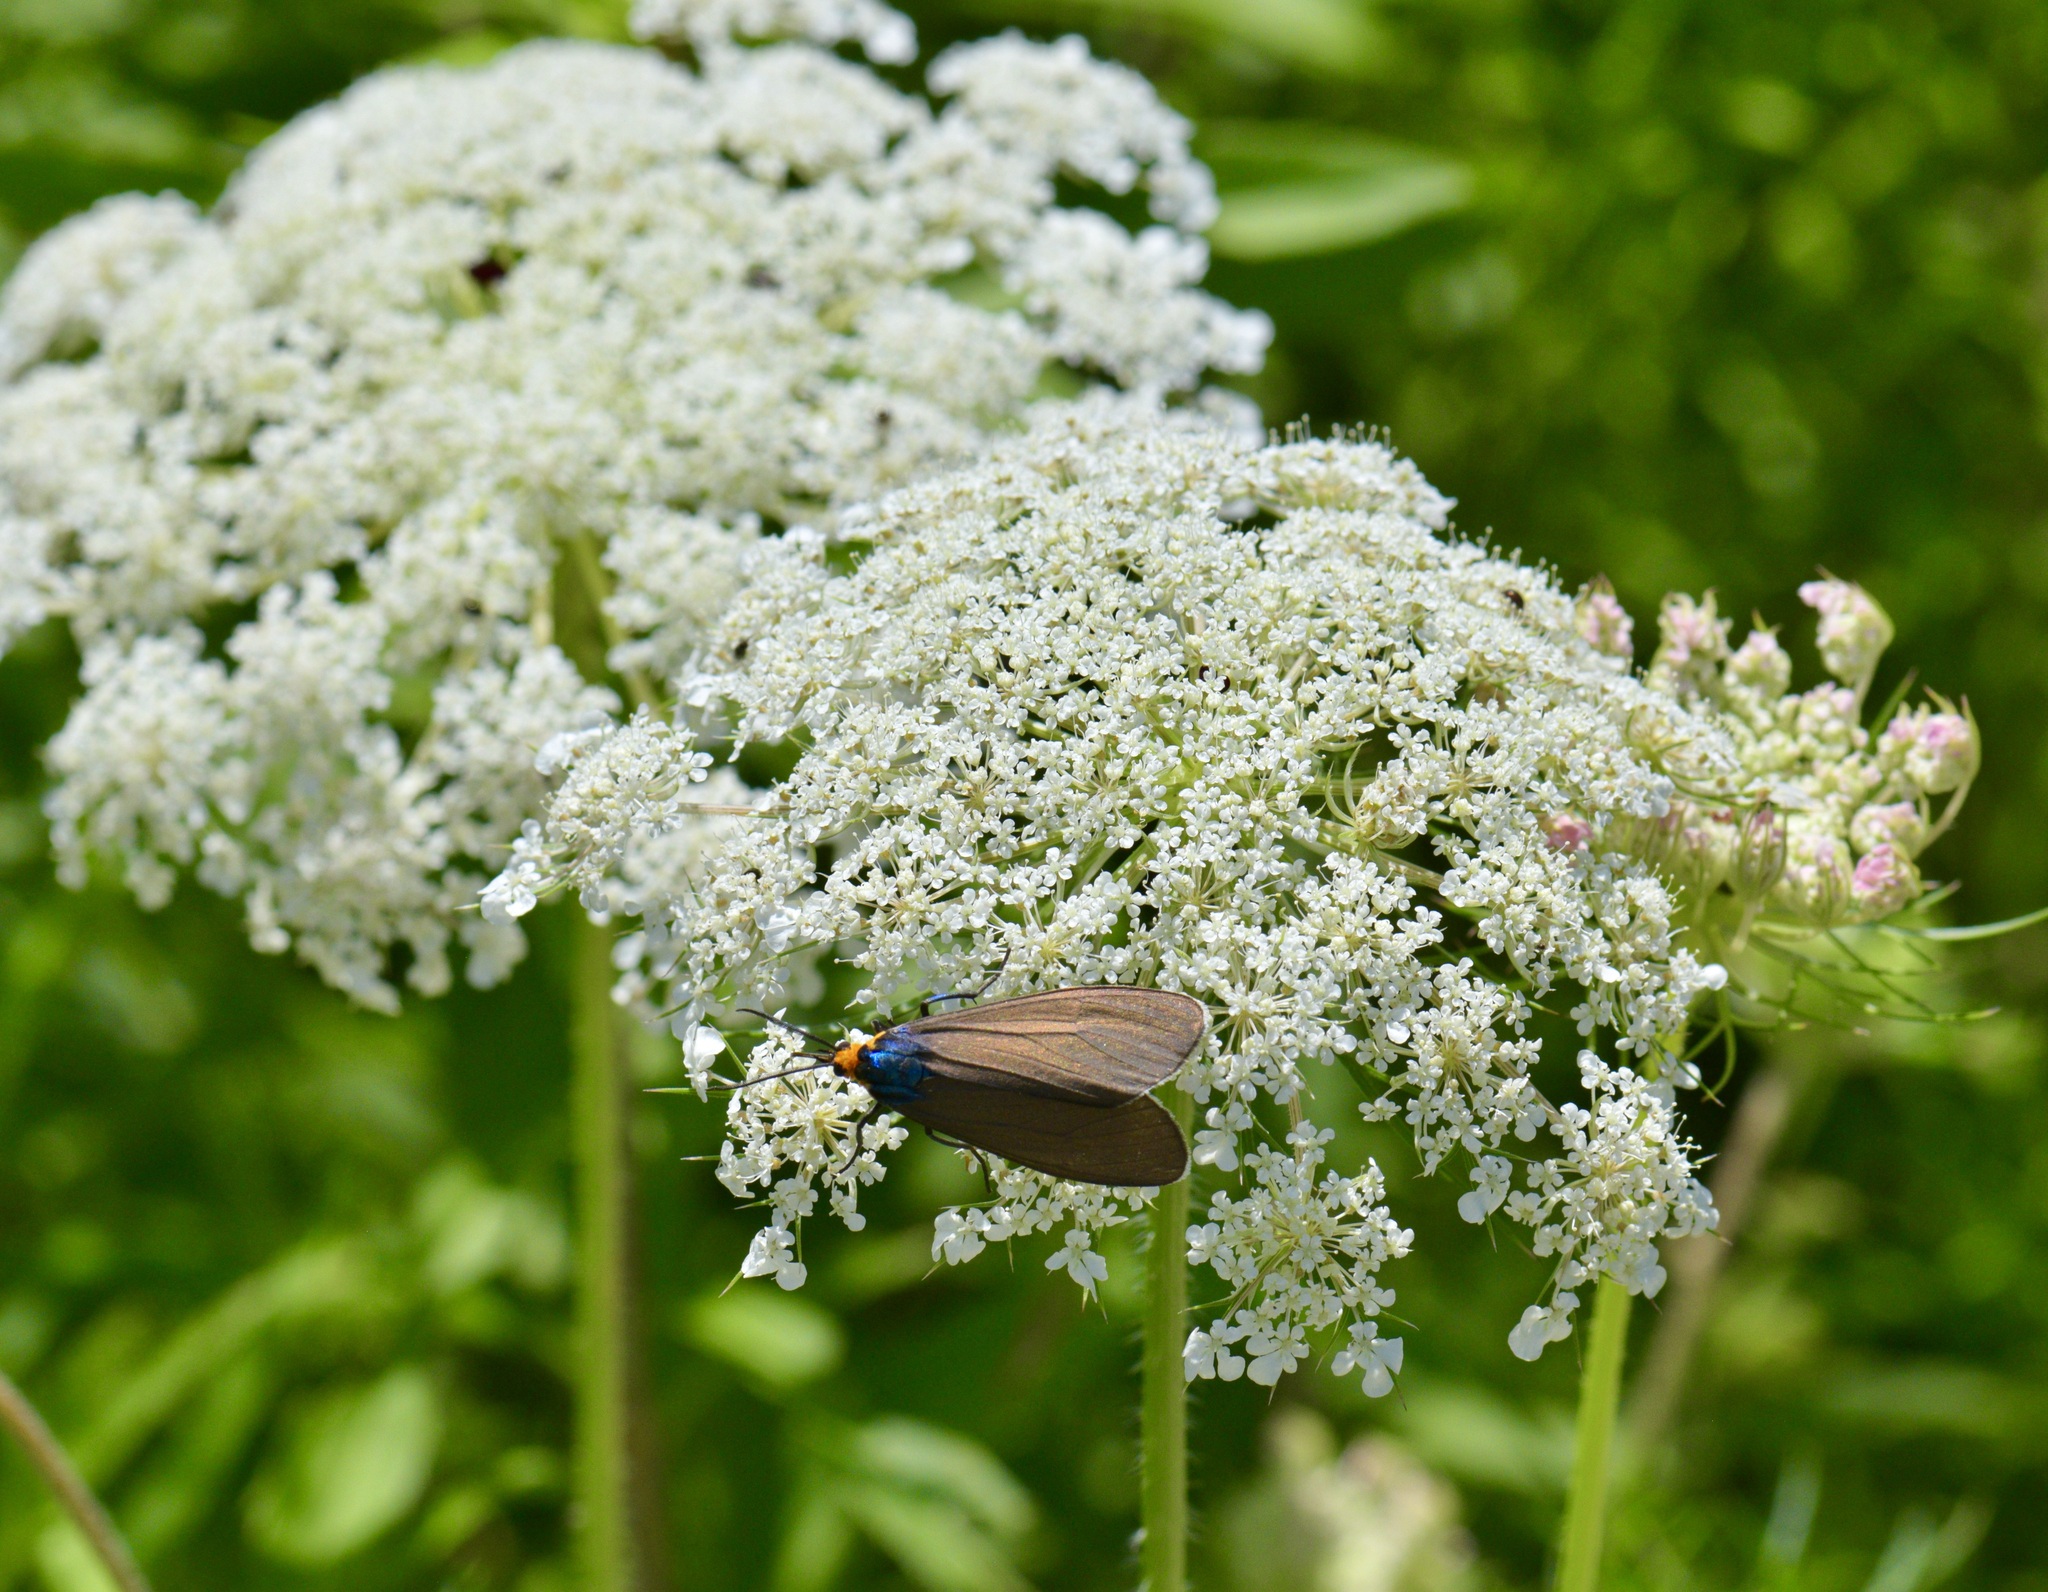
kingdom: Animalia
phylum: Arthropoda
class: Insecta
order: Lepidoptera
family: Erebidae
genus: Ctenucha
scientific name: Ctenucha virginica
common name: Virginia ctenucha moth
